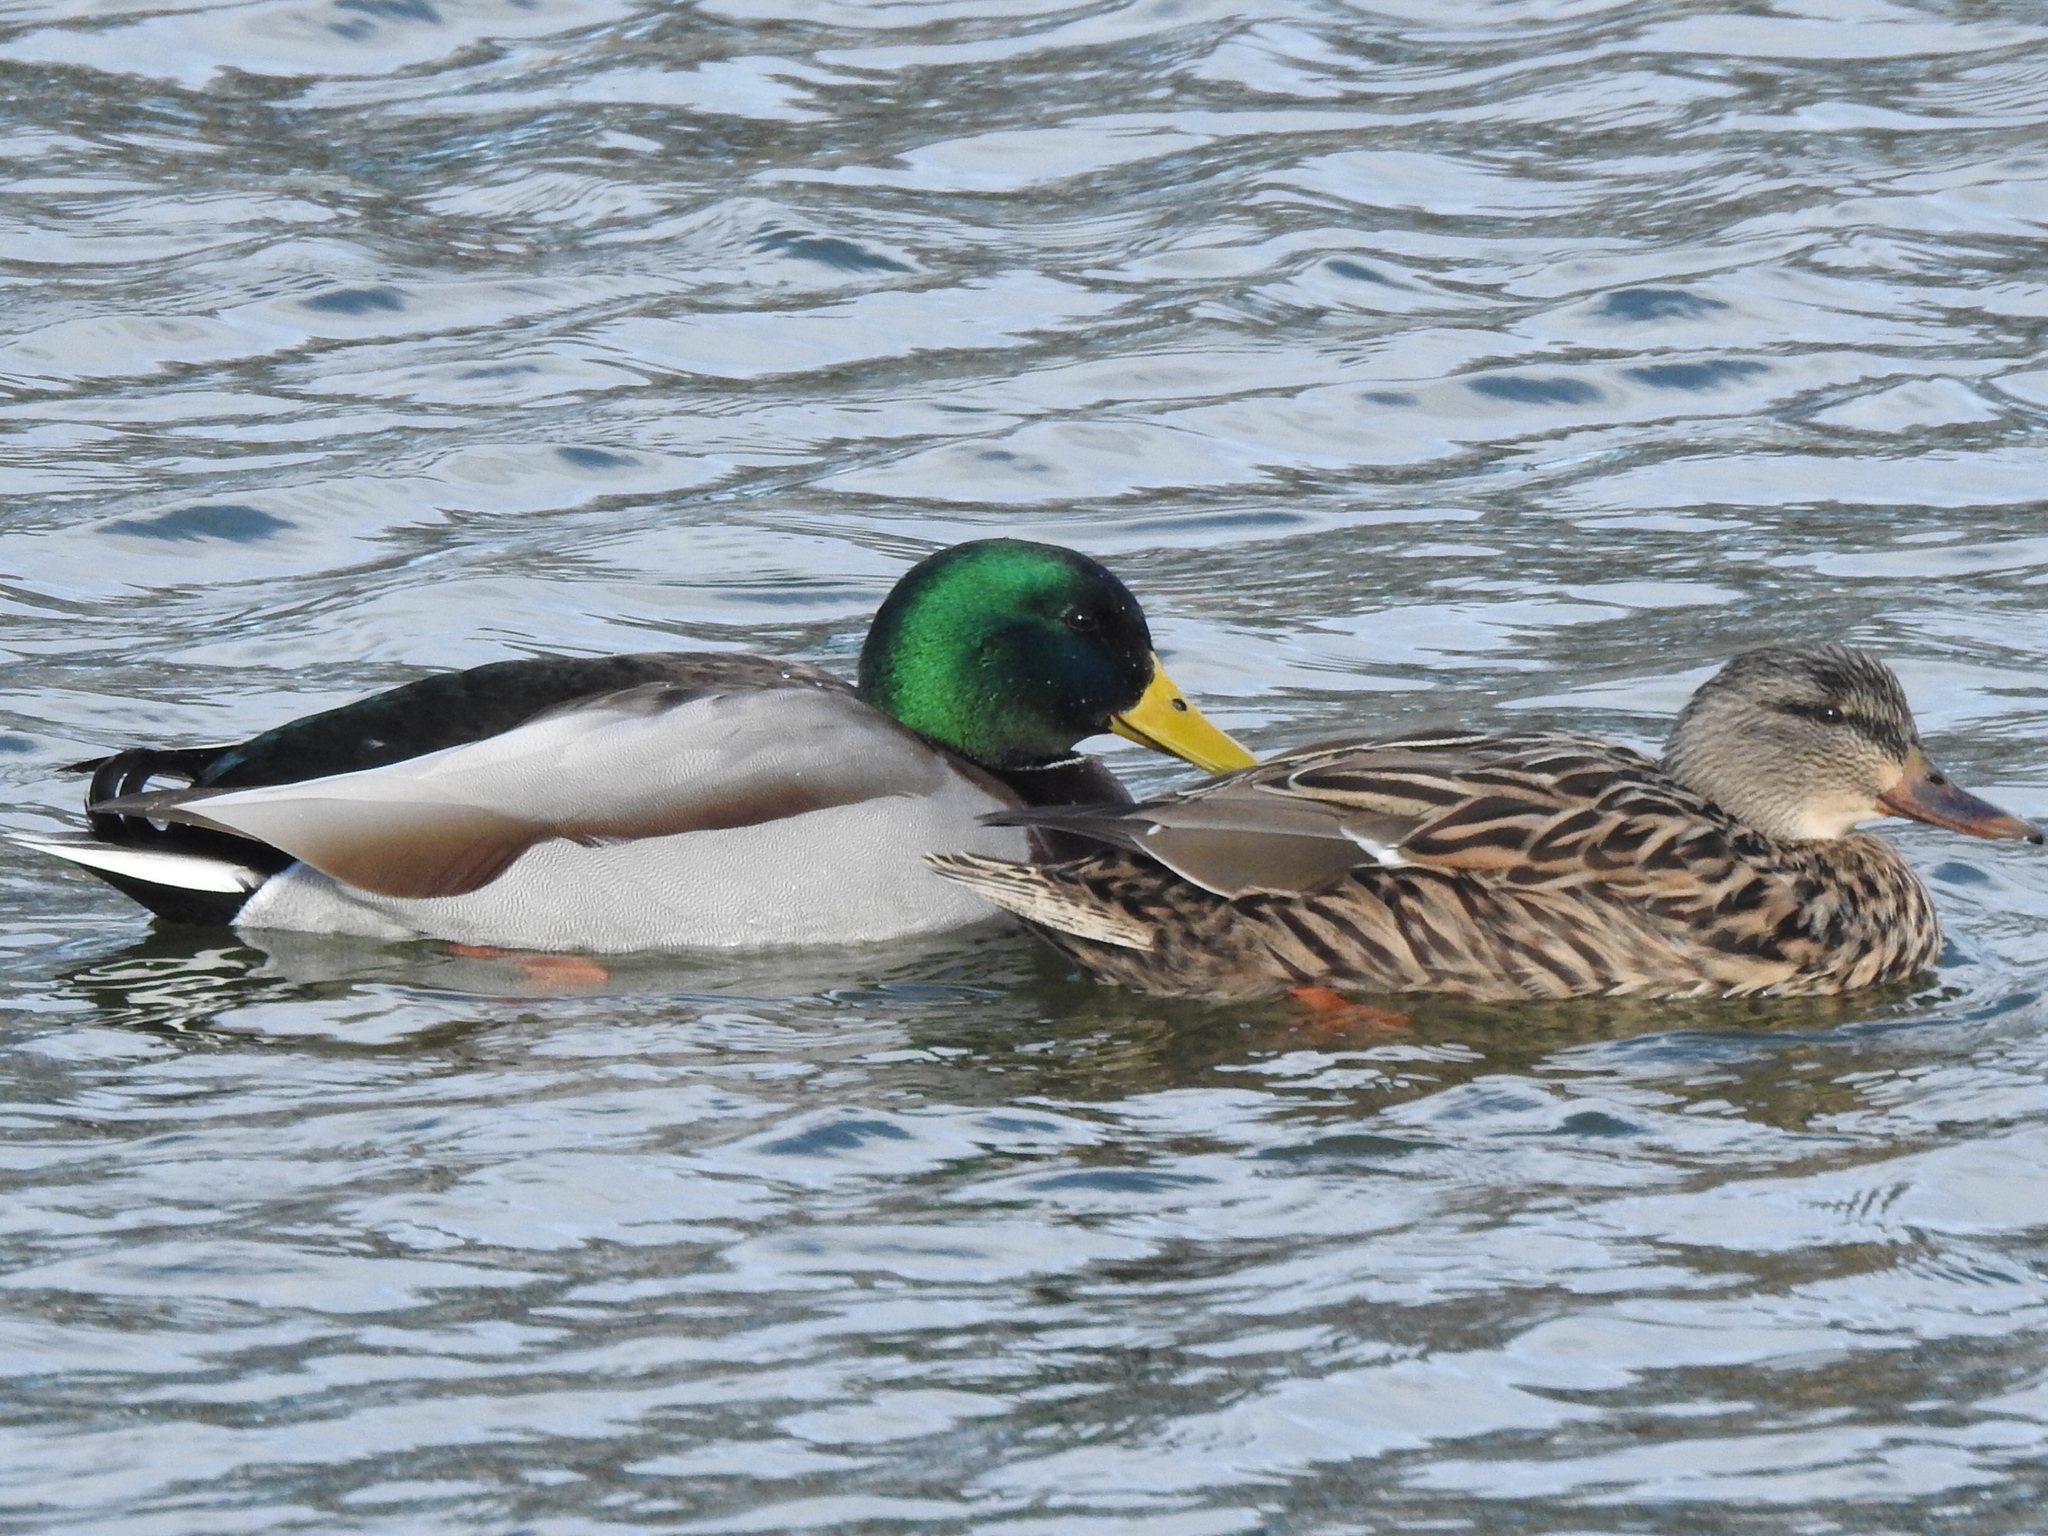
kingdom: Animalia
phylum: Chordata
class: Aves
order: Anseriformes
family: Anatidae
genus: Anas
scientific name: Anas platyrhynchos
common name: Mallard
